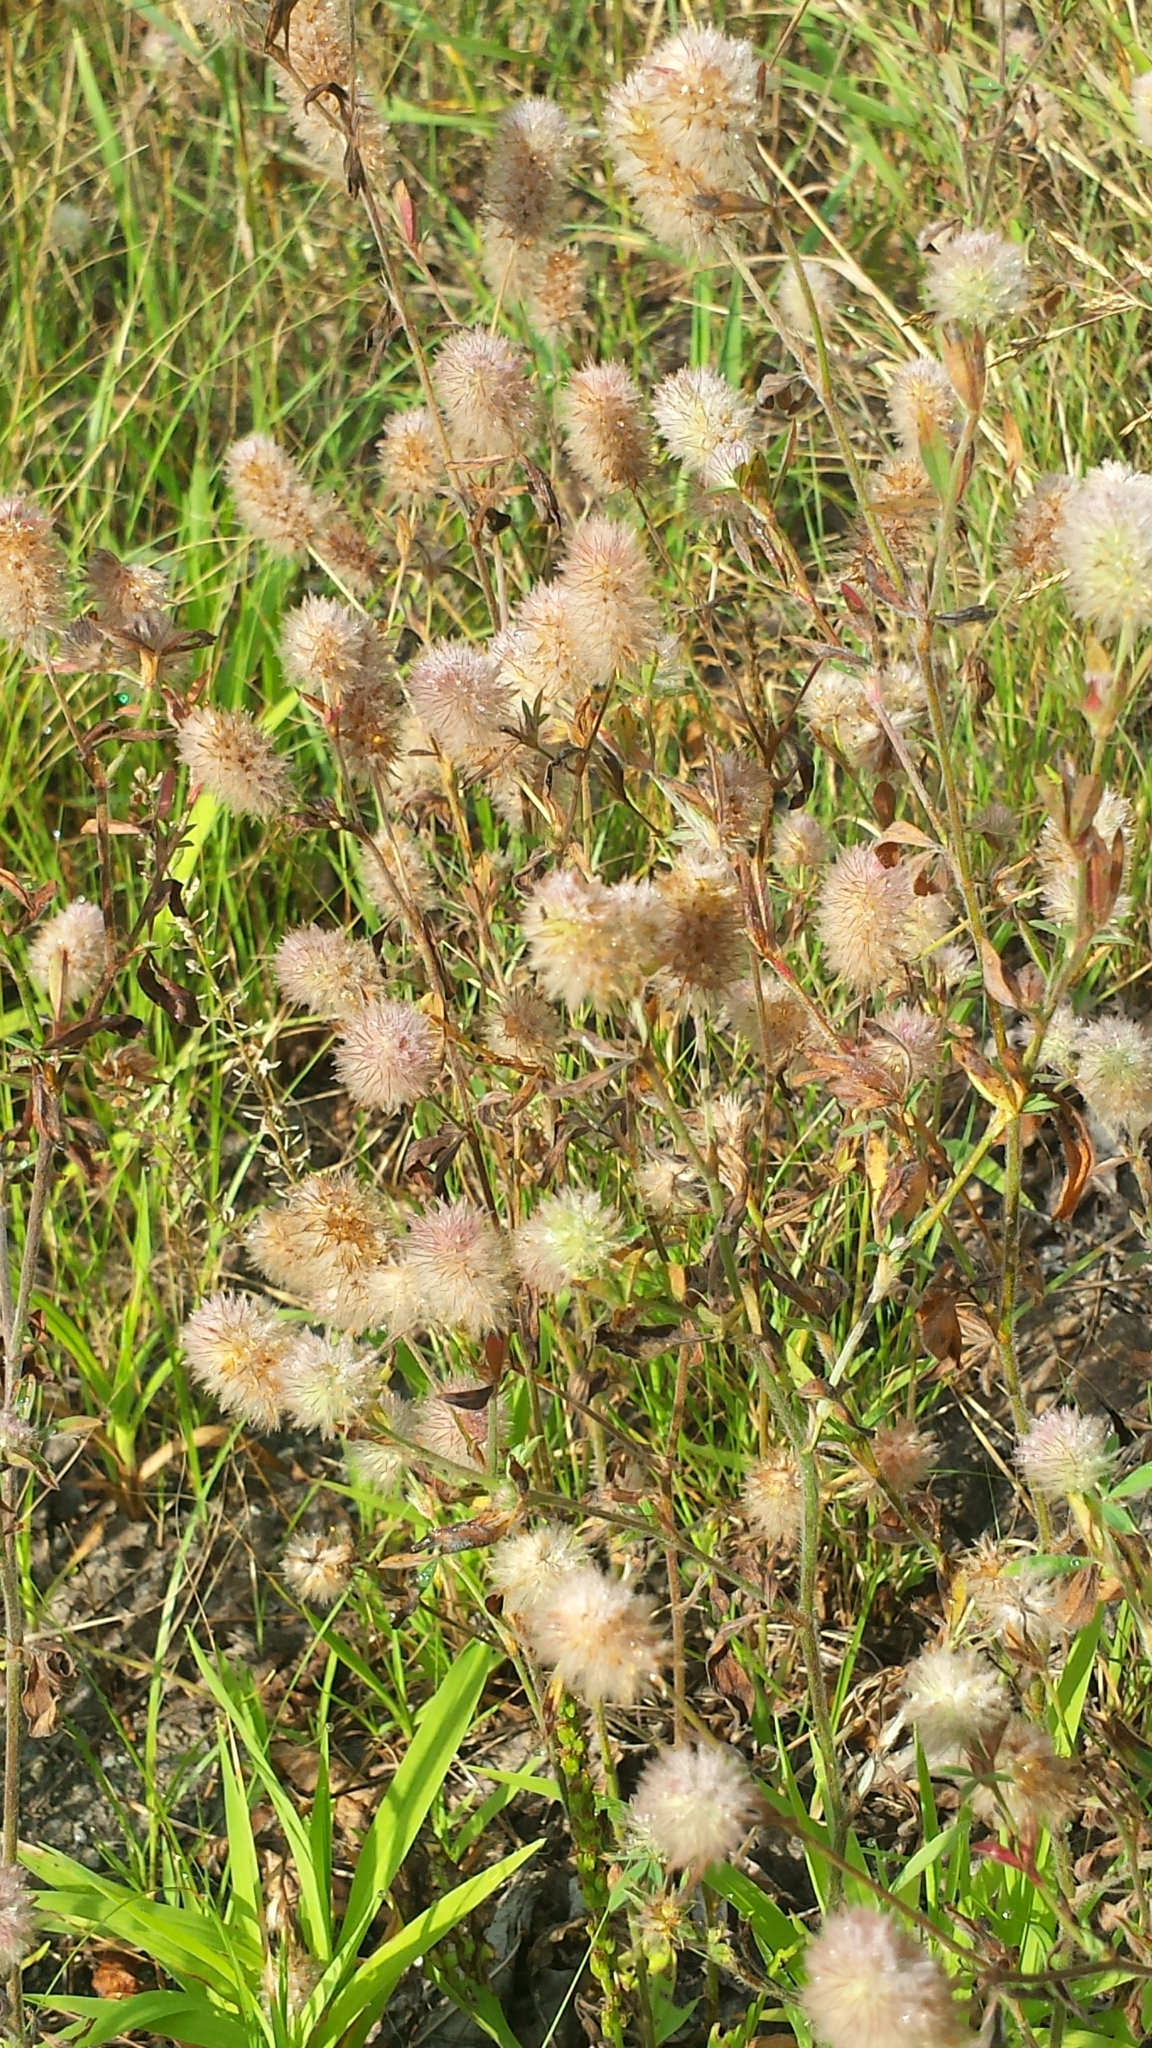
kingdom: Plantae
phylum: Tracheophyta
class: Magnoliopsida
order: Fabales
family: Fabaceae
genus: Trifolium
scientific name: Trifolium arvense
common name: Hare's-foot clover
